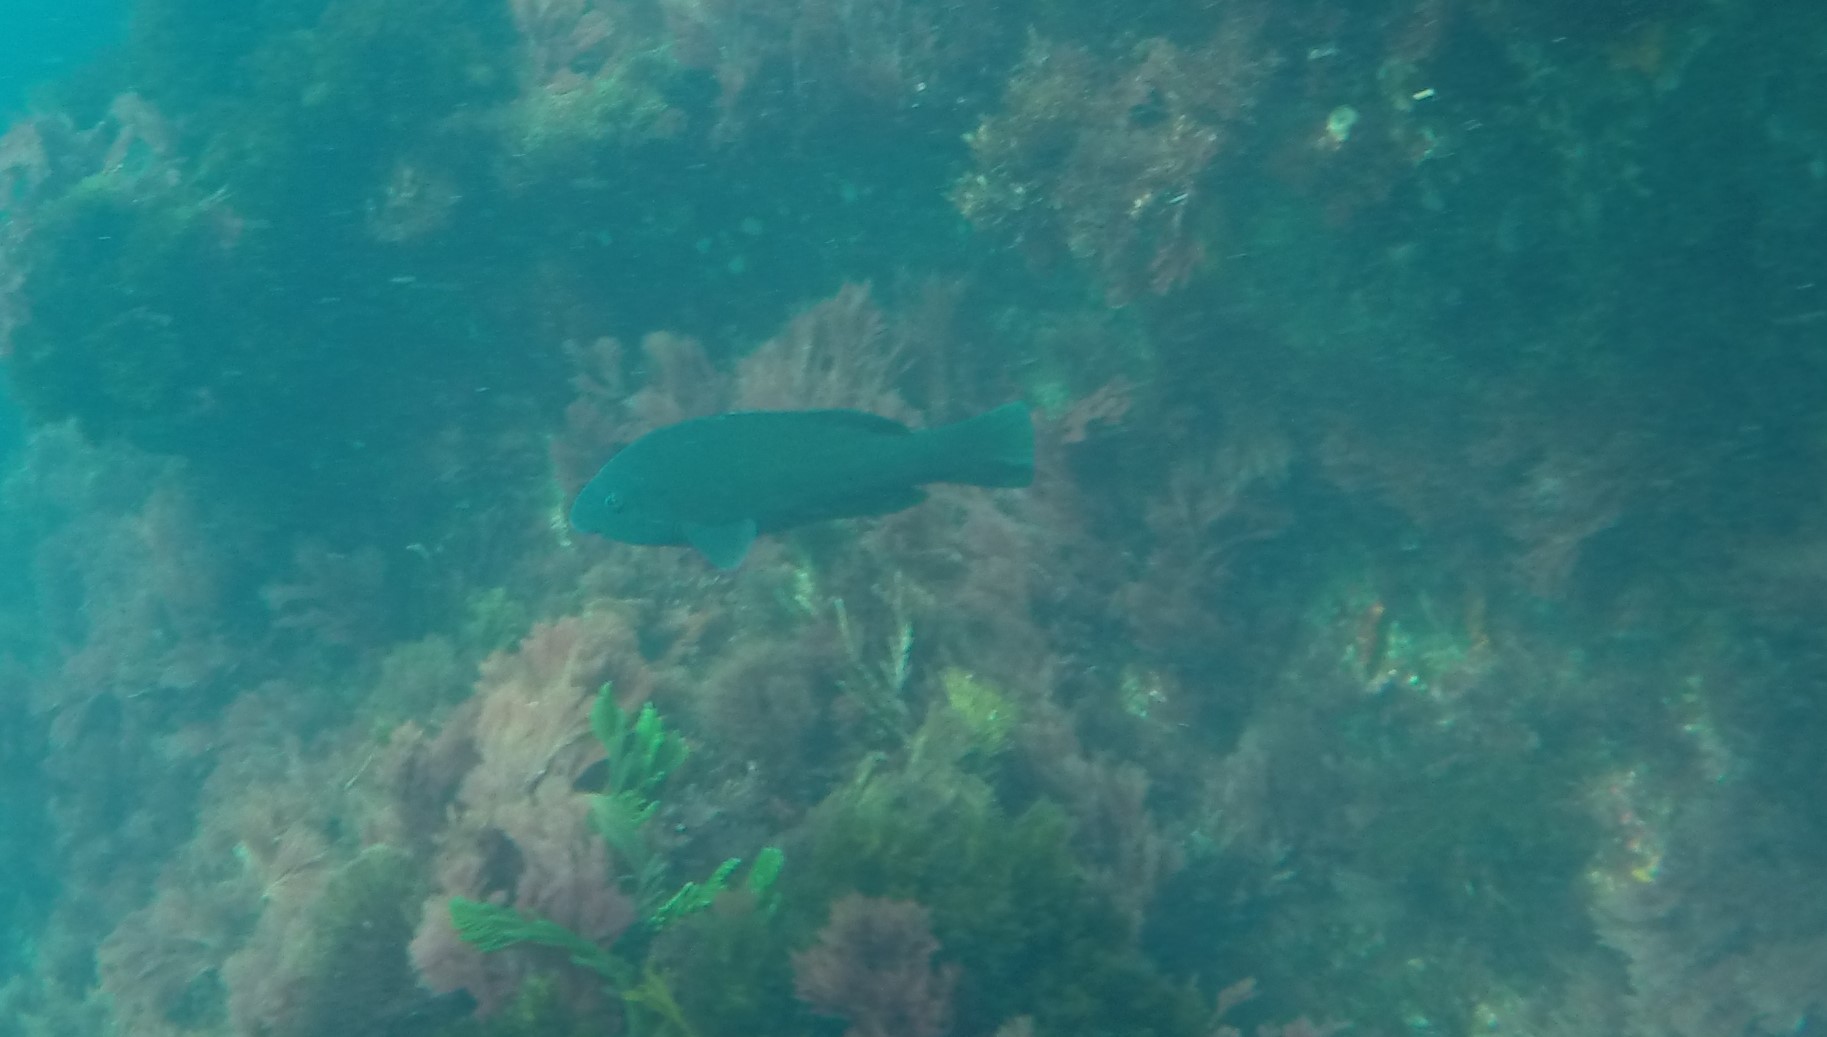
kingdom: Animalia
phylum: Chordata
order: Perciformes
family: Labridae
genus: Achoerodus
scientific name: Achoerodus gouldii
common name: Western blue groper
